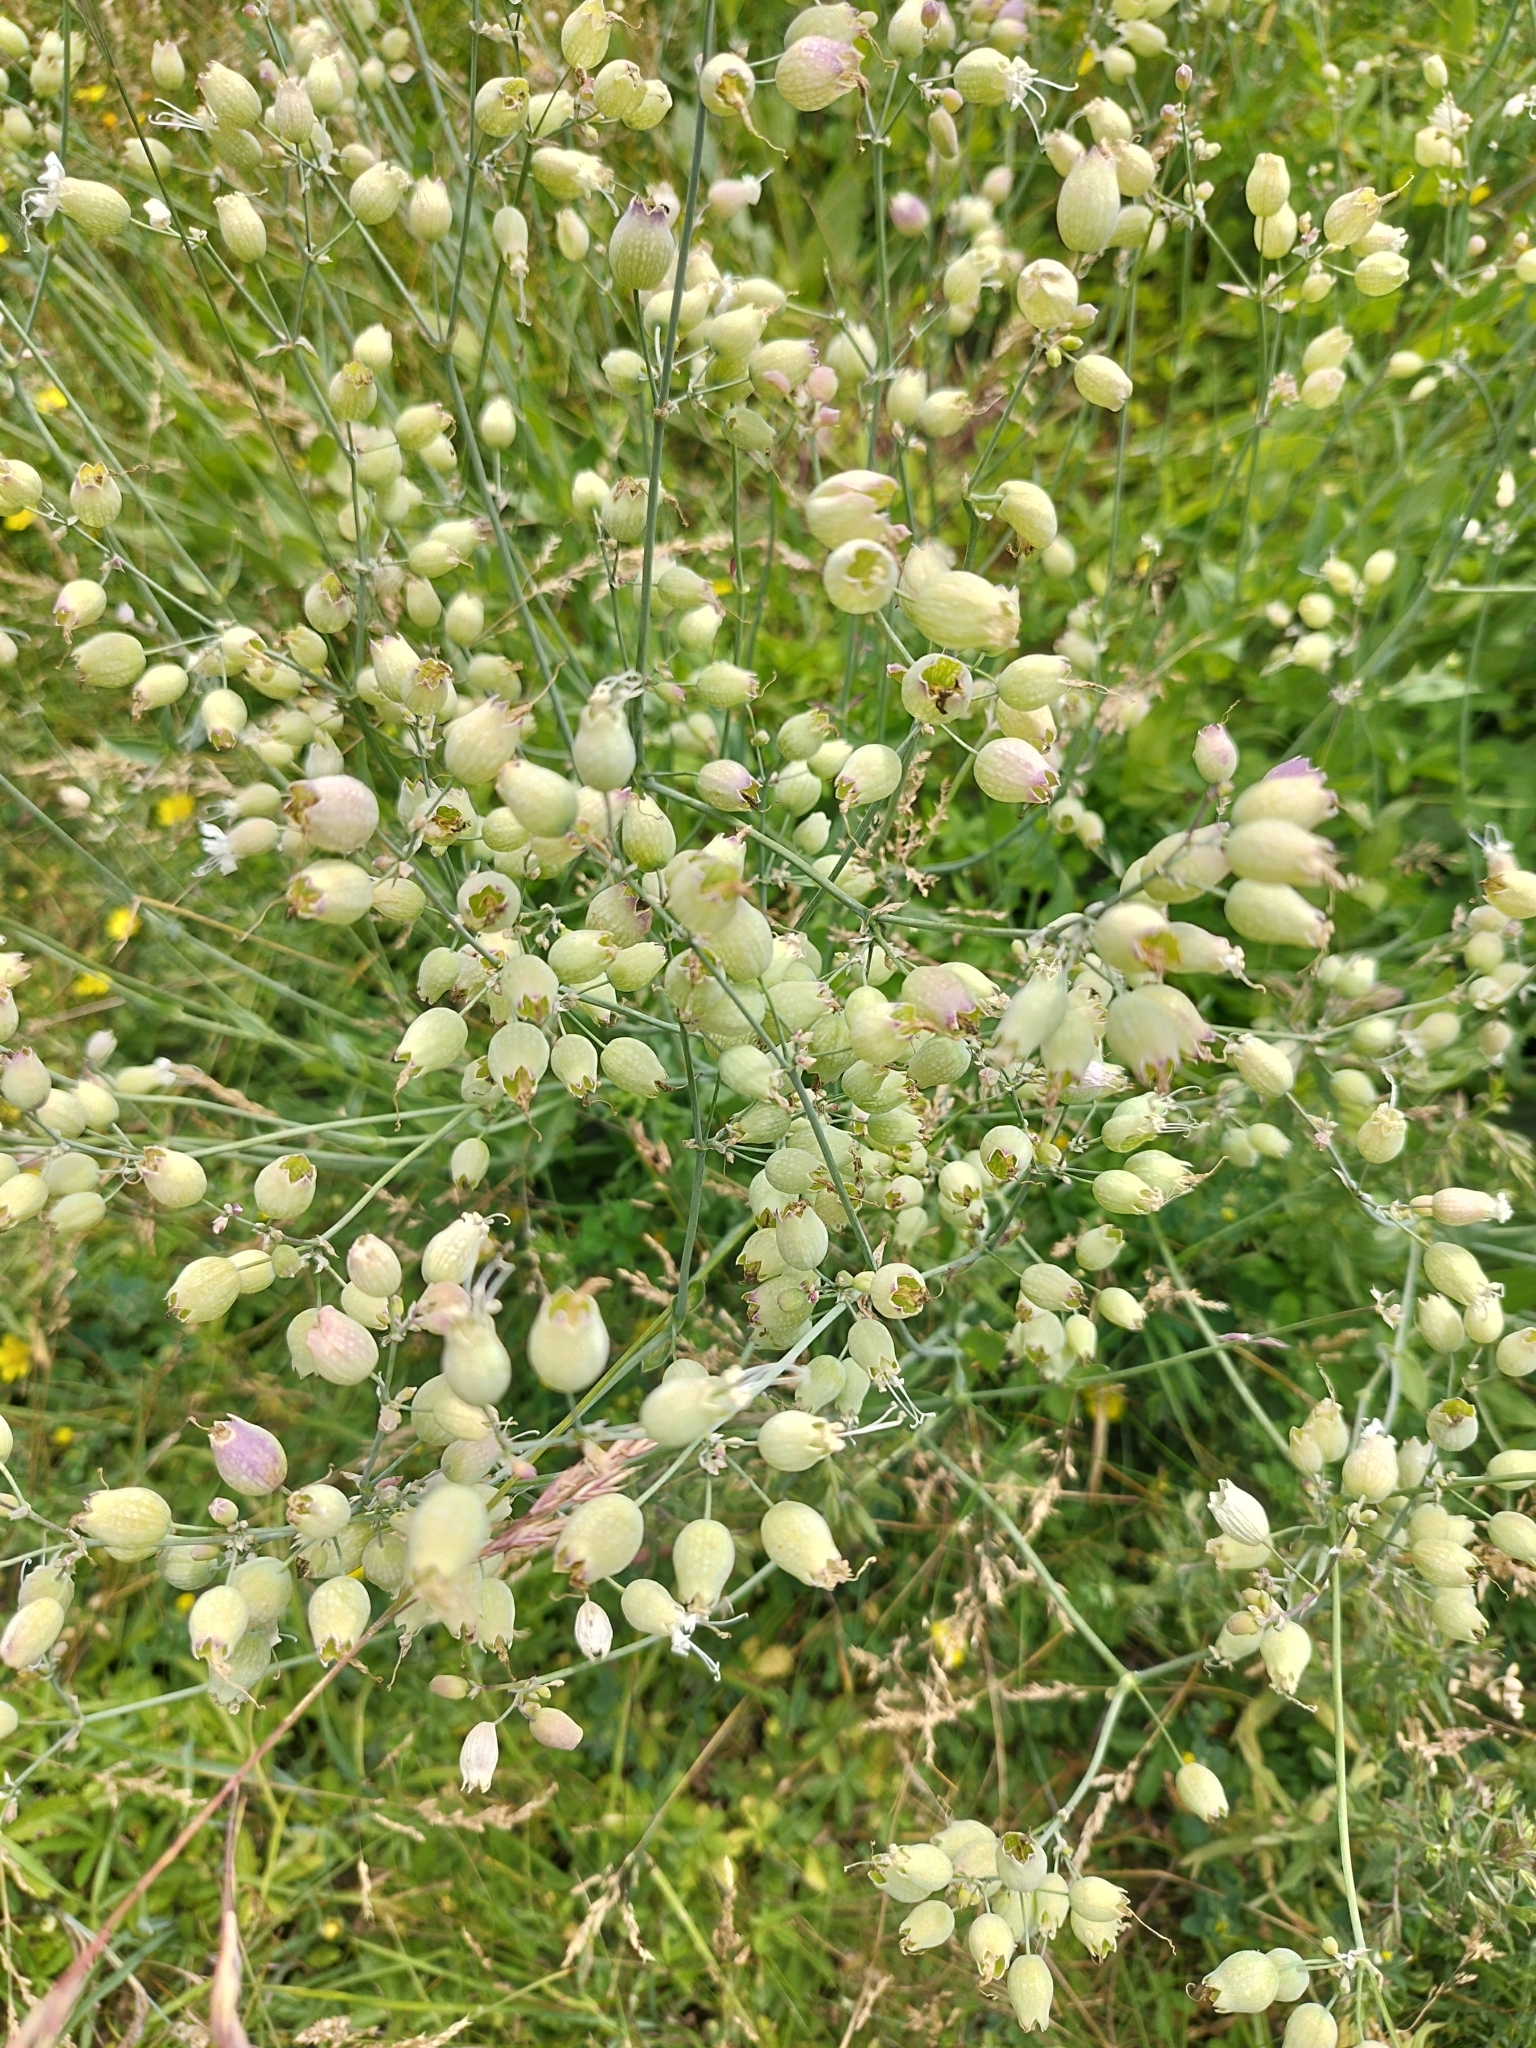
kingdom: Plantae
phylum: Tracheophyta
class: Magnoliopsida
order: Caryophyllales
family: Caryophyllaceae
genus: Silene
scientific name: Silene vulgaris
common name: Bladder campion
